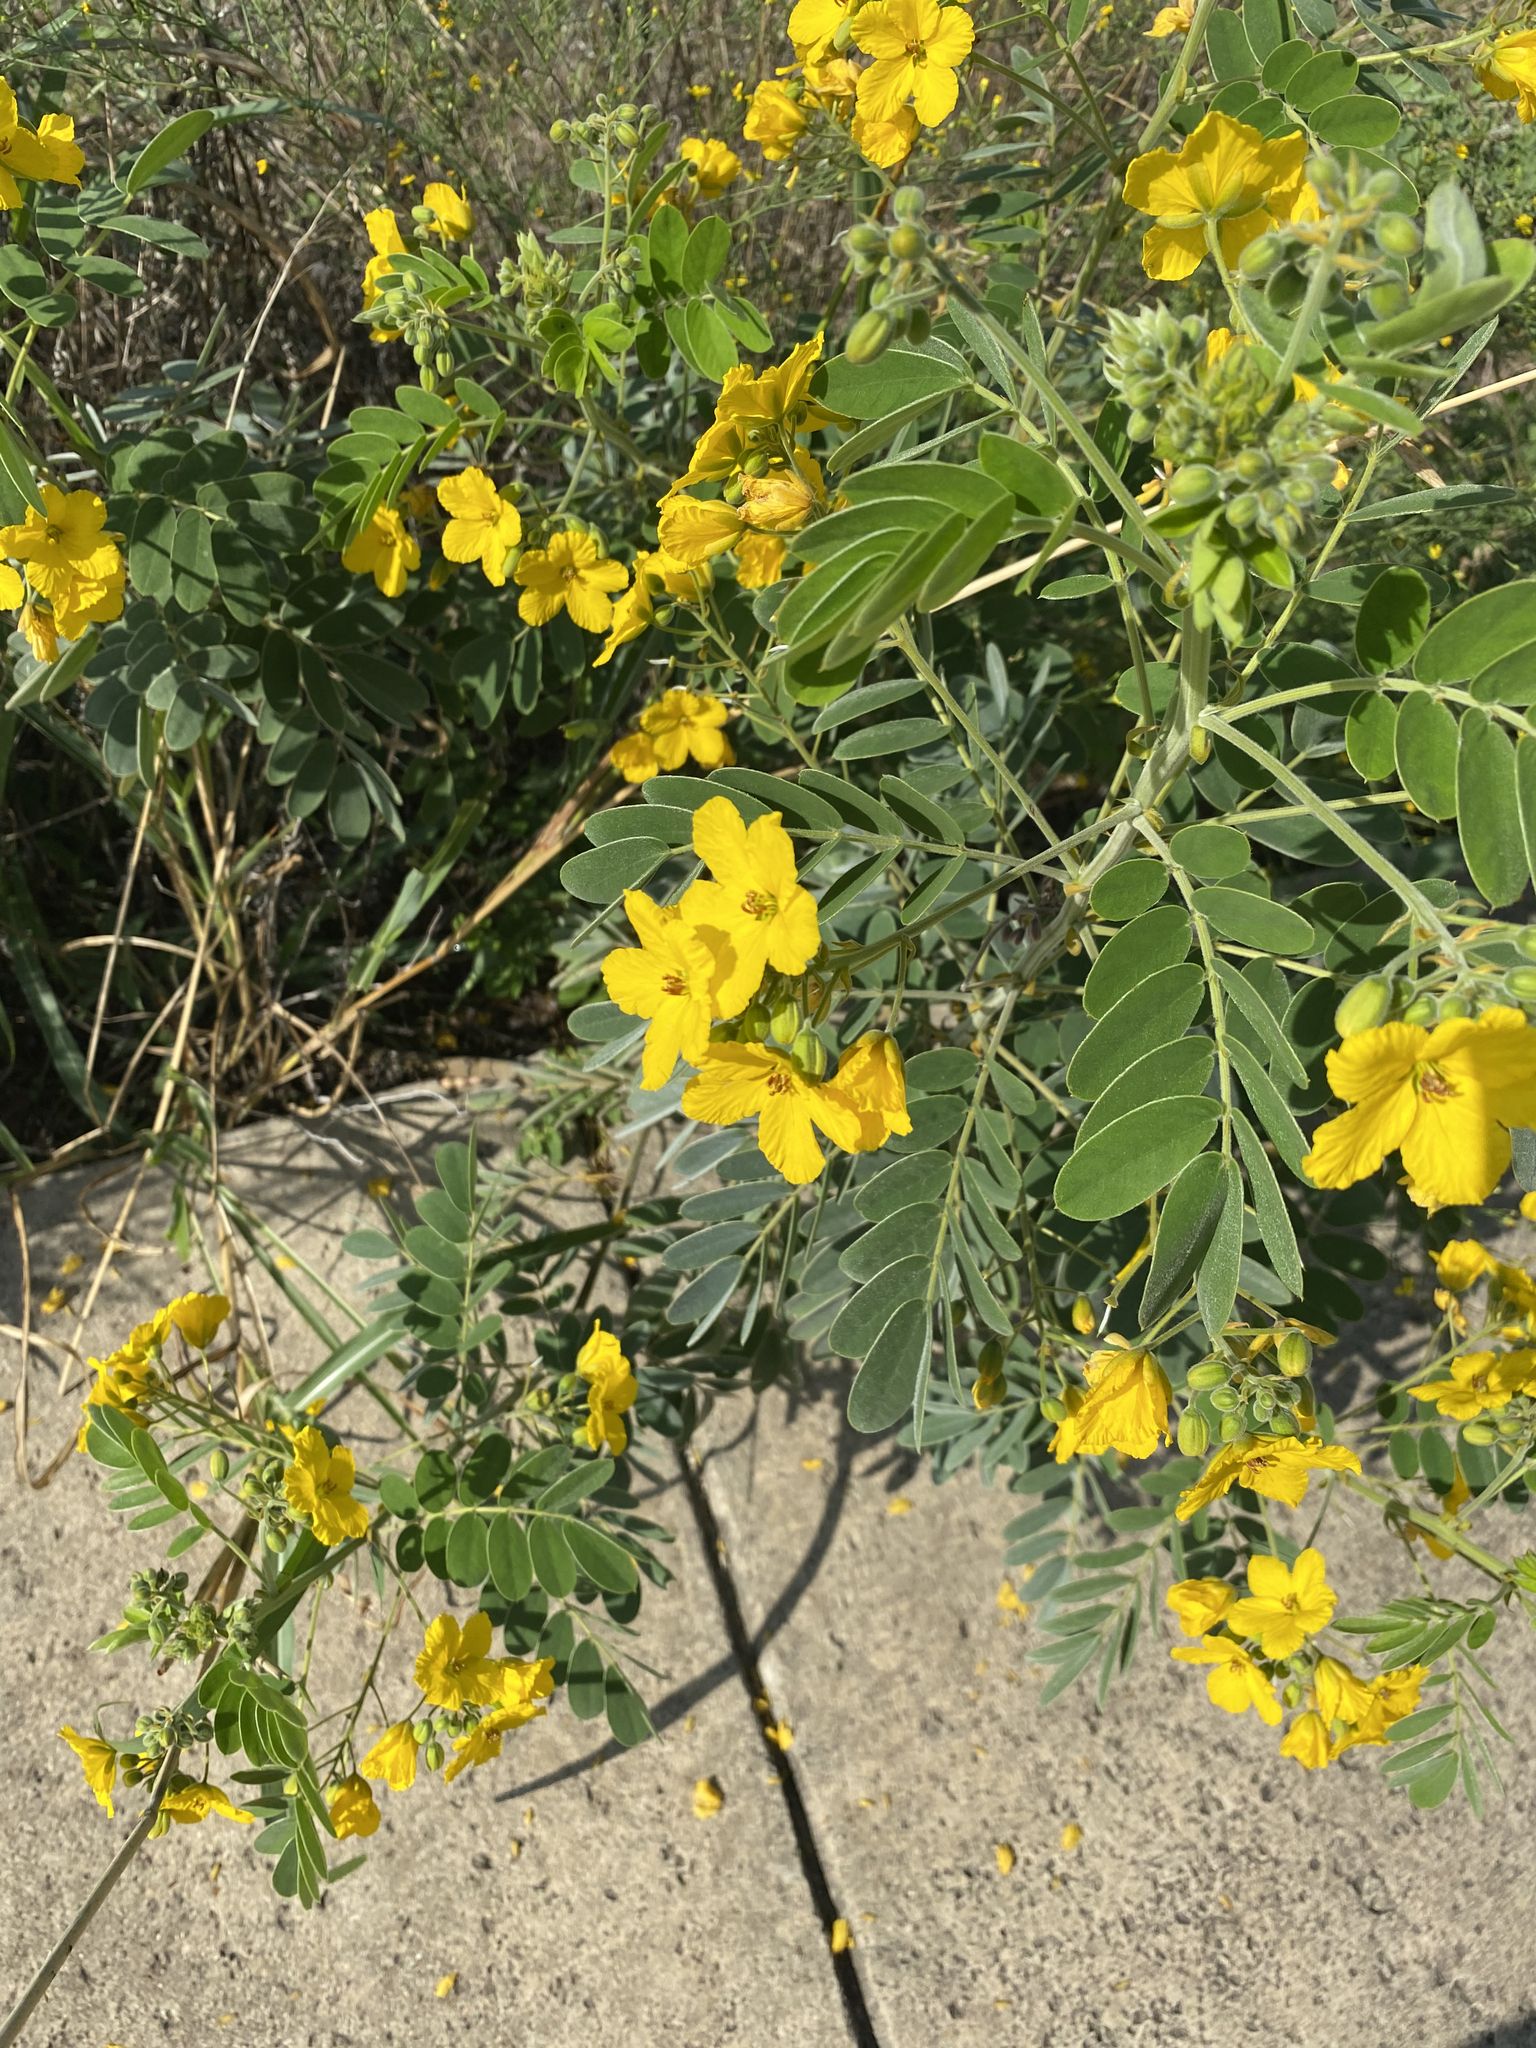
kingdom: Plantae
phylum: Tracheophyta
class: Magnoliopsida
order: Fabales
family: Fabaceae
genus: Senna
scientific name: Senna lindheimeriana
